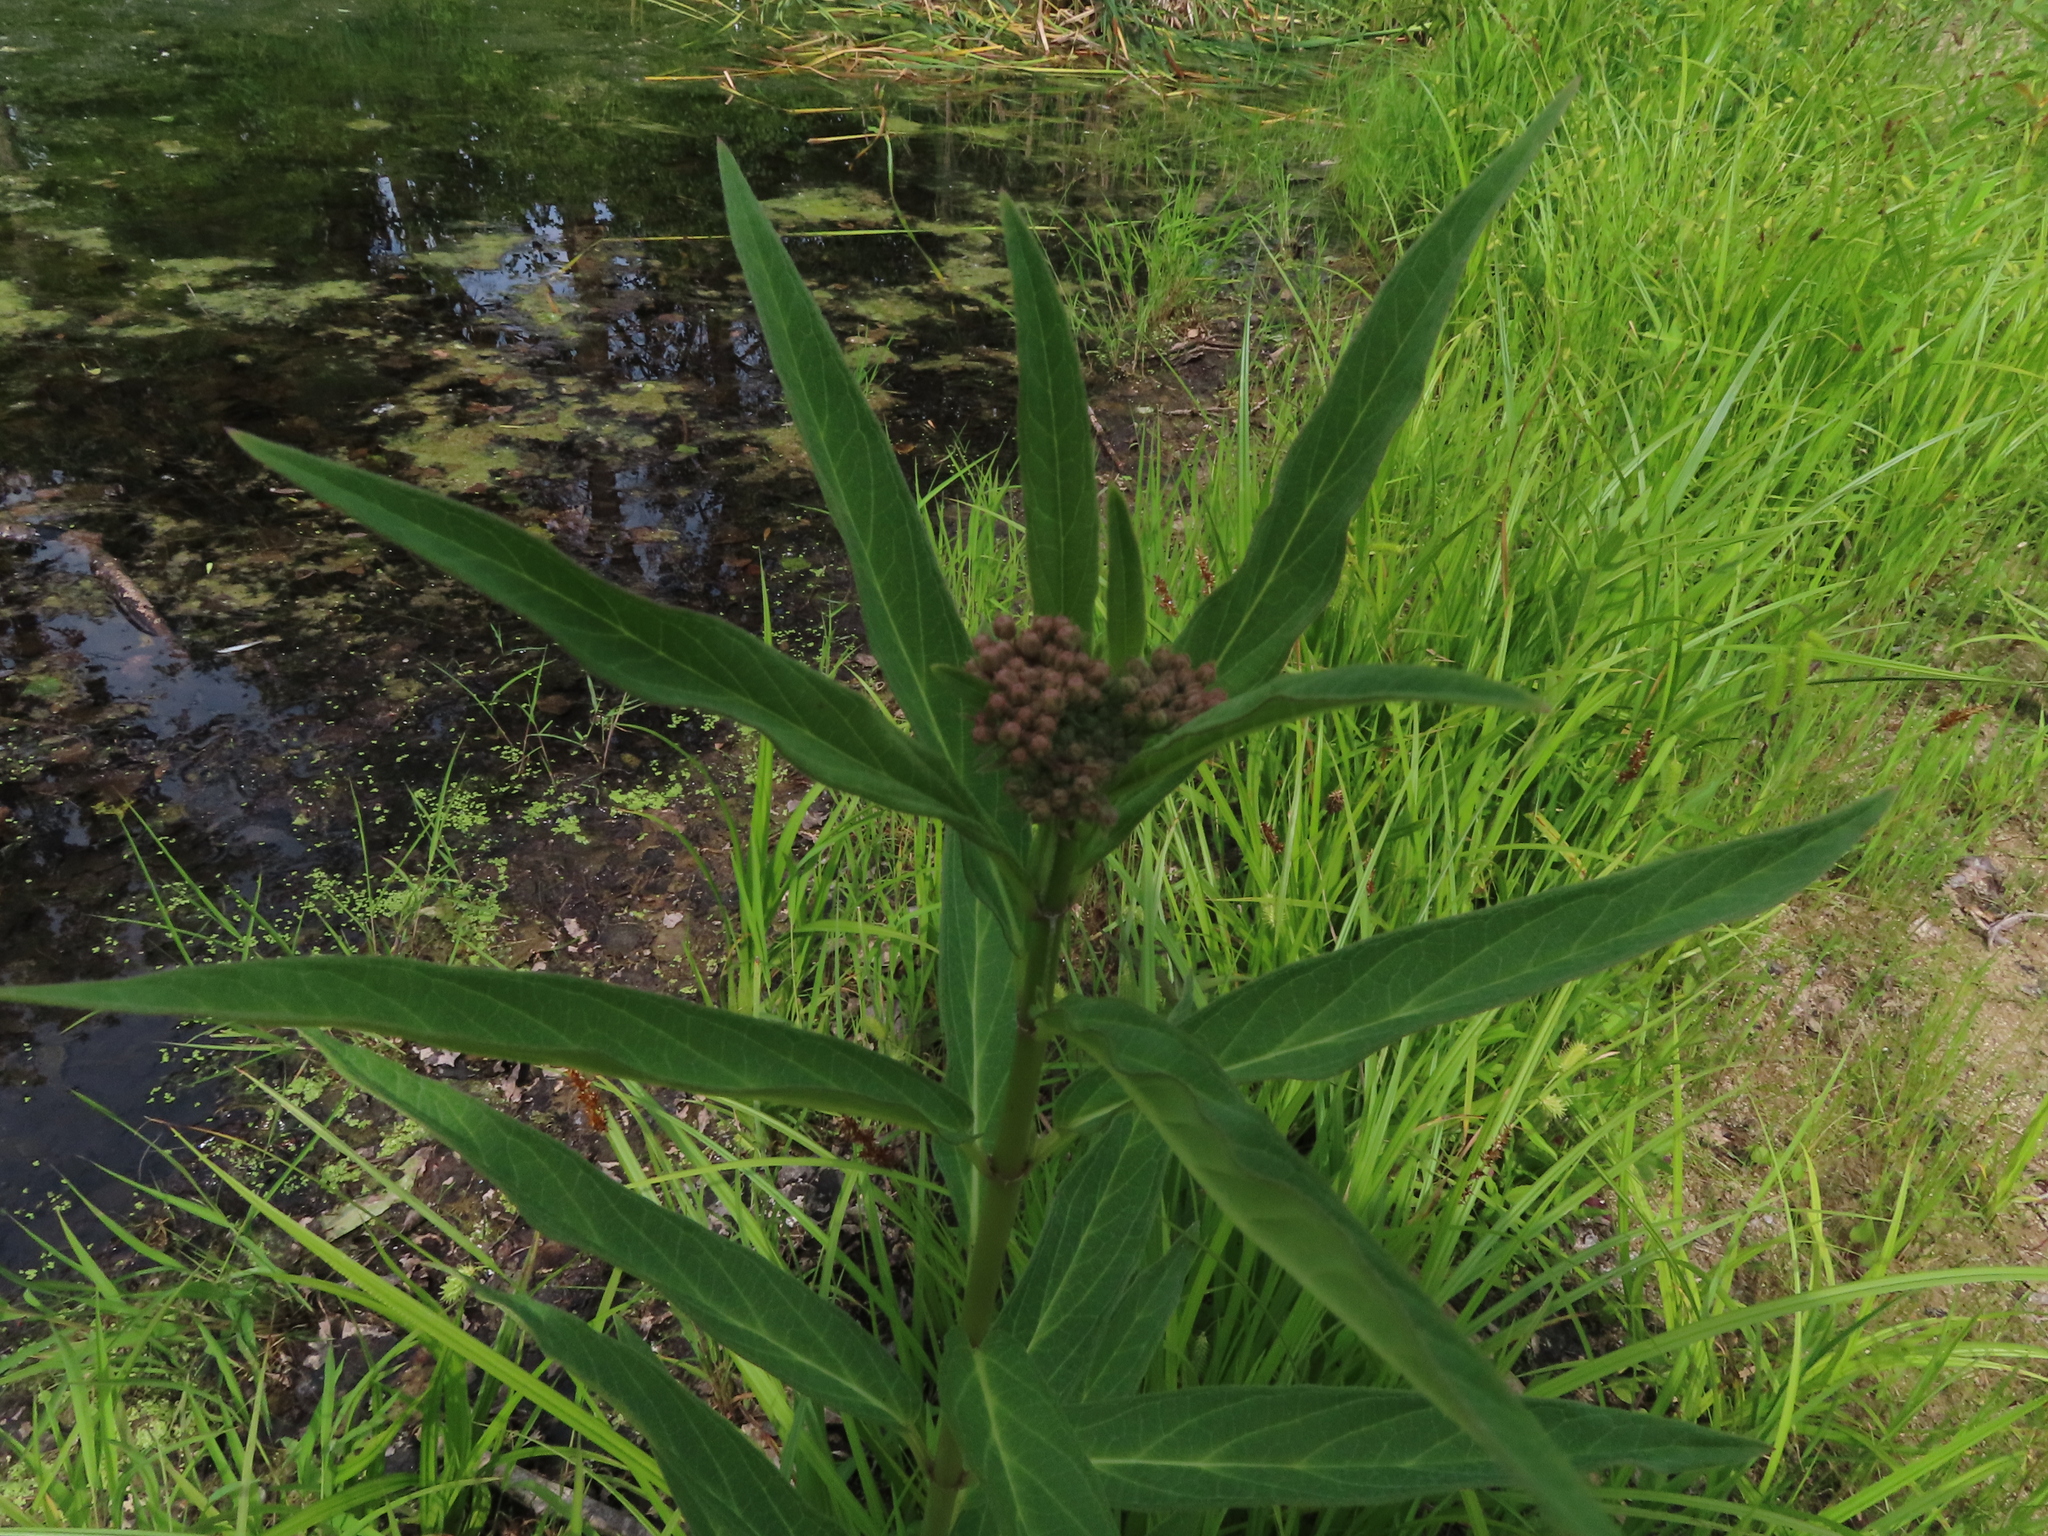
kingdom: Plantae
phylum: Tracheophyta
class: Magnoliopsida
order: Gentianales
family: Apocynaceae
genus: Asclepias
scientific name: Asclepias incarnata
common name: Swamp milkweed
